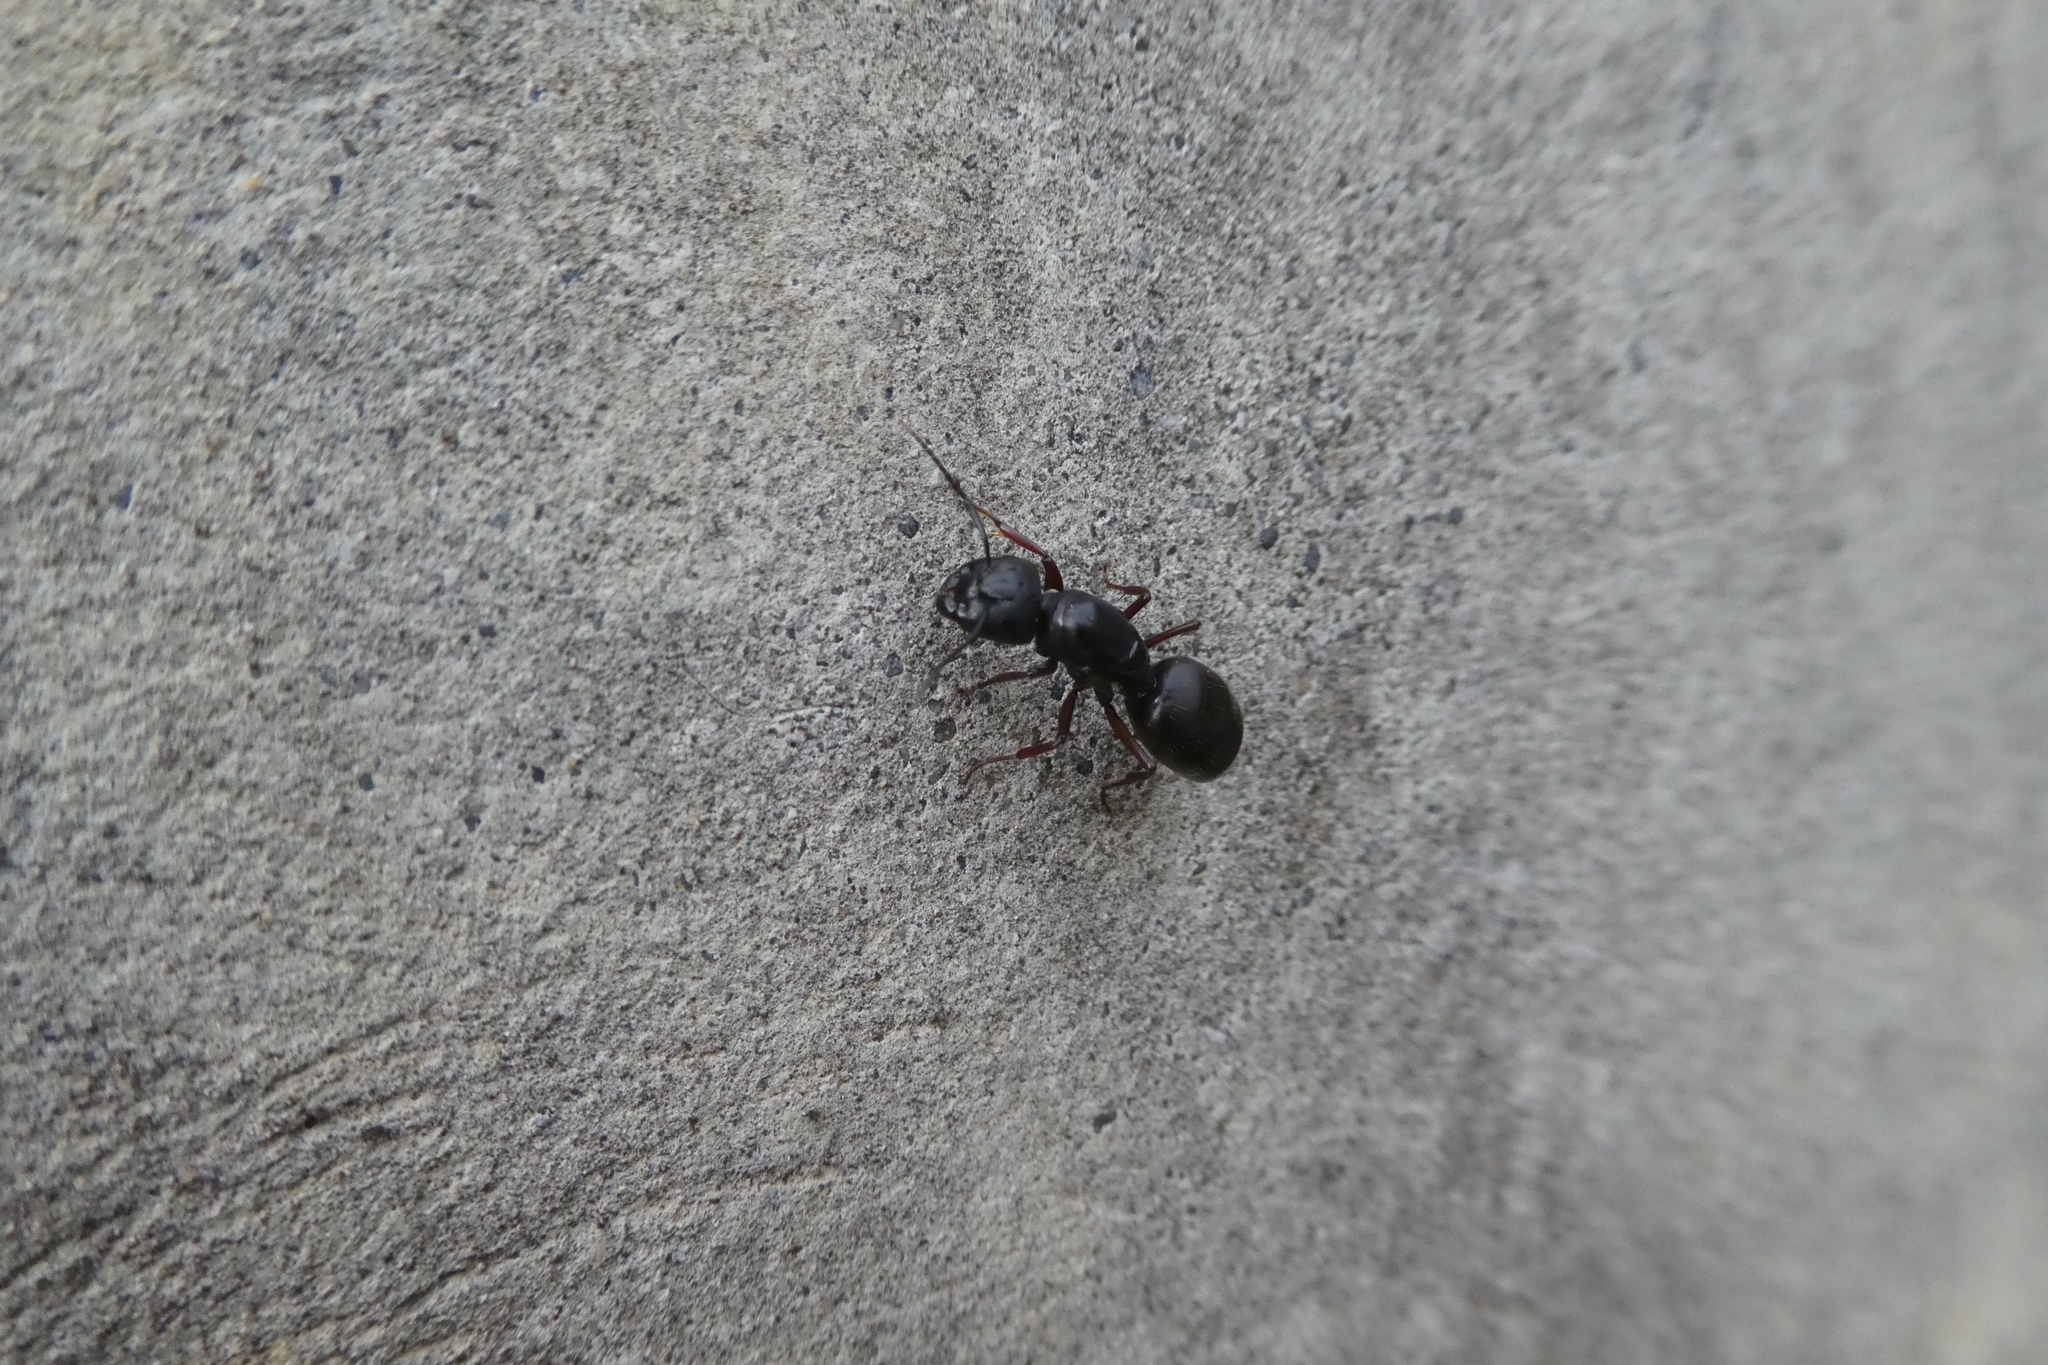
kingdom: Animalia
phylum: Arthropoda
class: Insecta
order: Hymenoptera
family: Formicidae
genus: Camponotus
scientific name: Camponotus modoc
